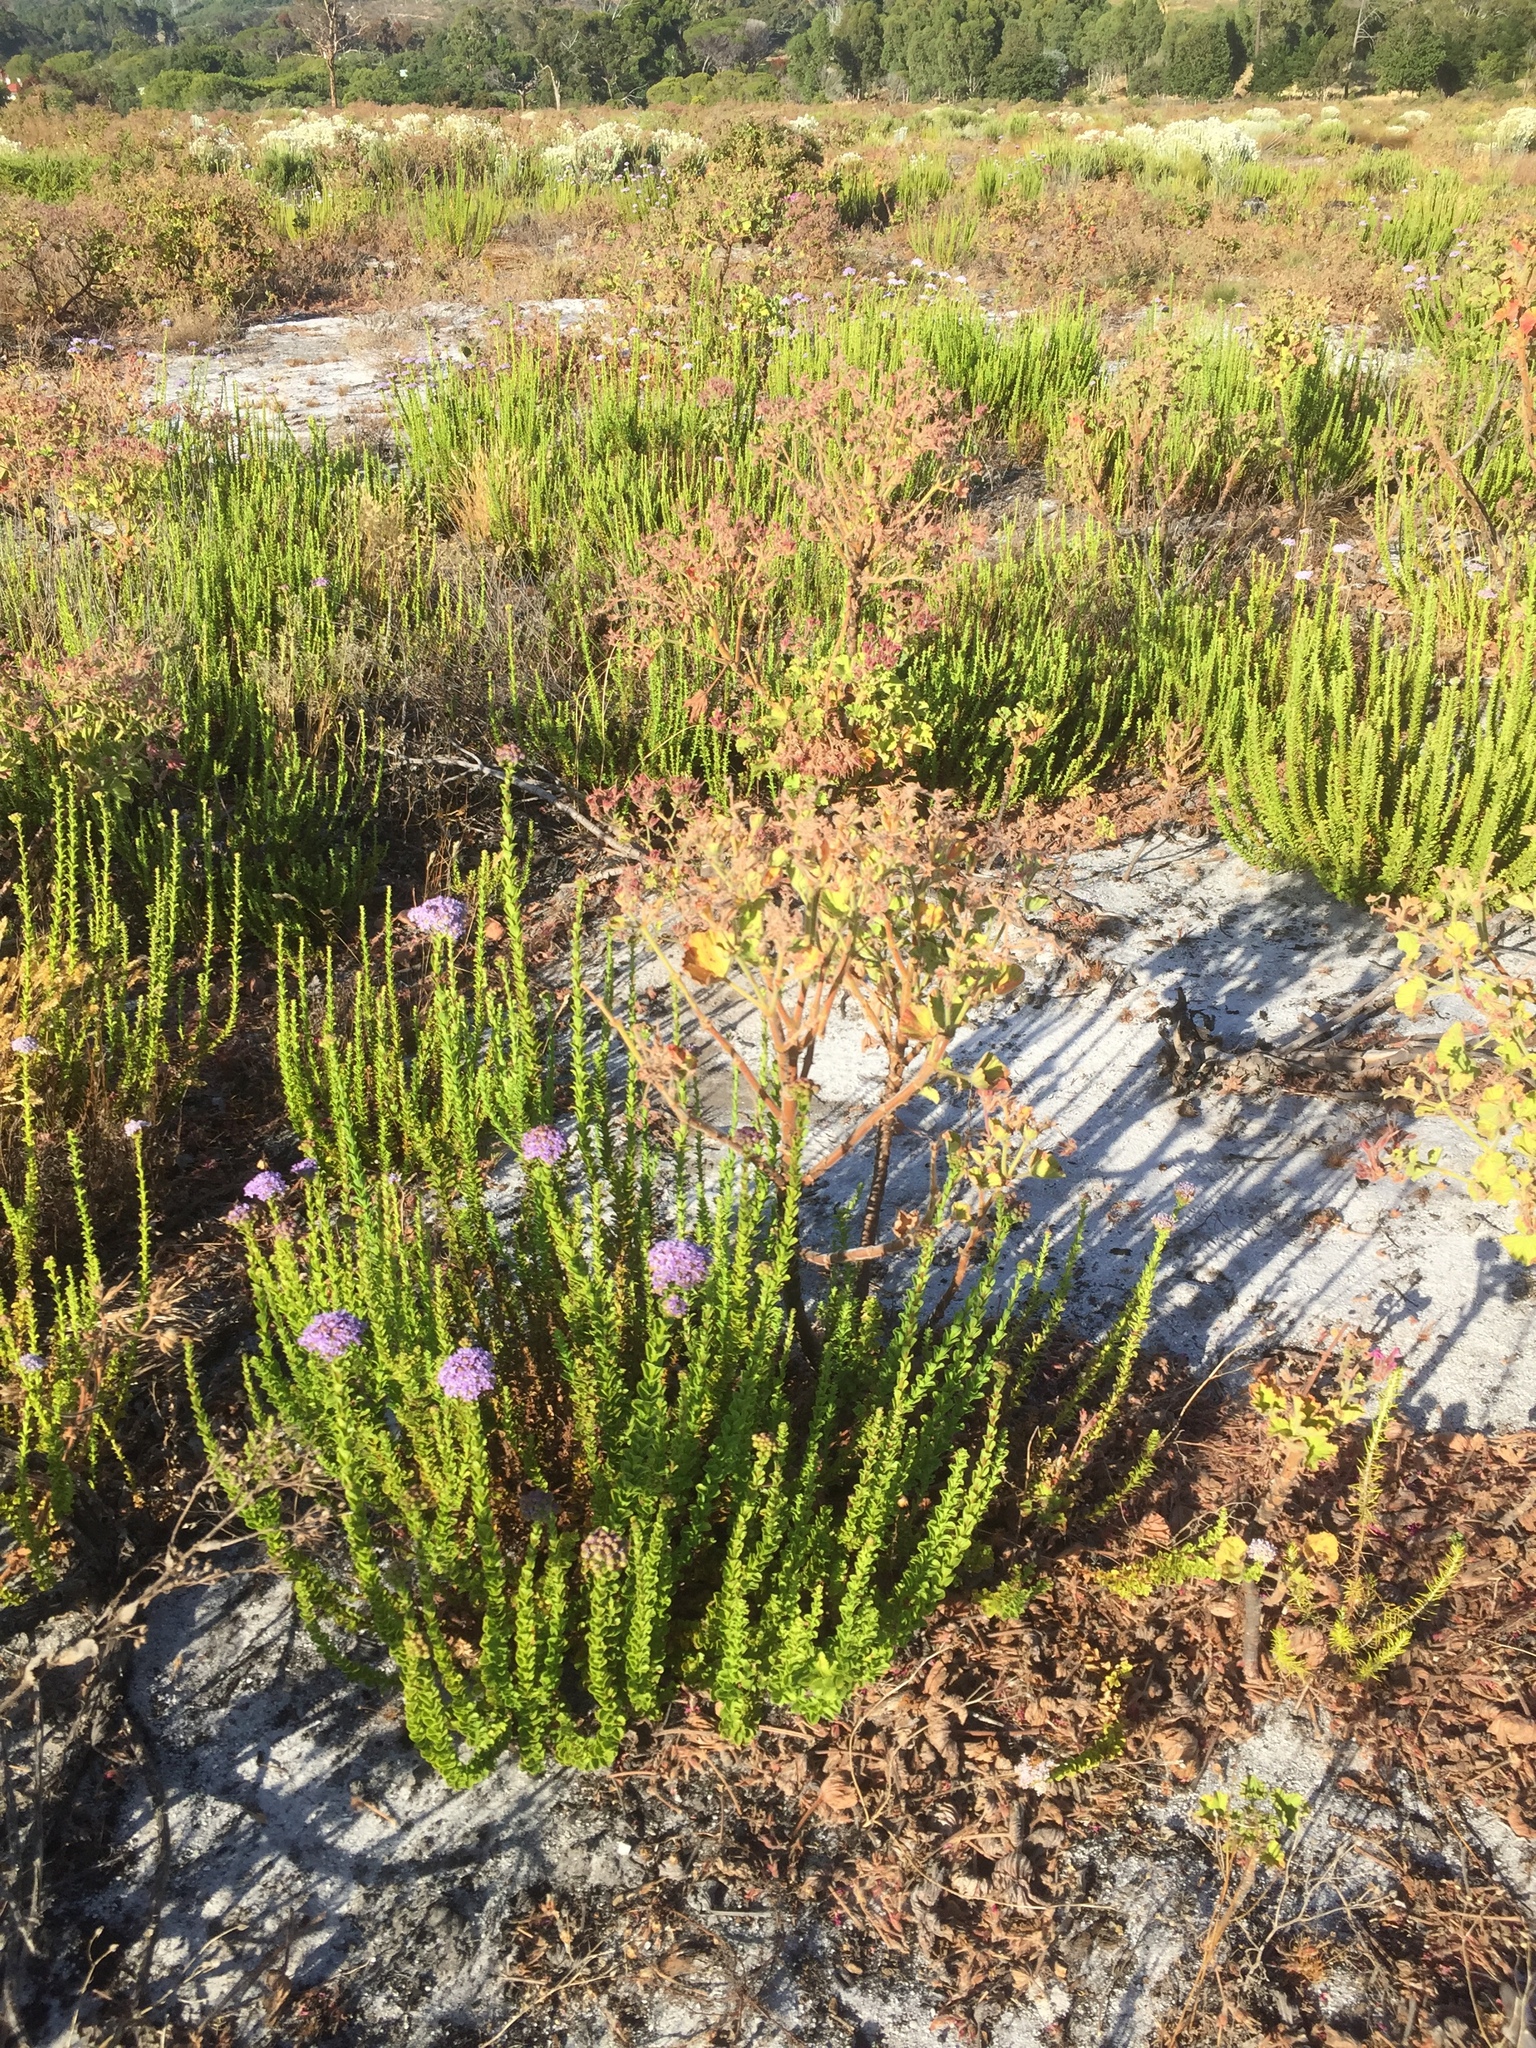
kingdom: Plantae
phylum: Tracheophyta
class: Magnoliopsida
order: Lamiales
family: Scrophulariaceae
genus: Pseudoselago
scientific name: Pseudoselago serrata
